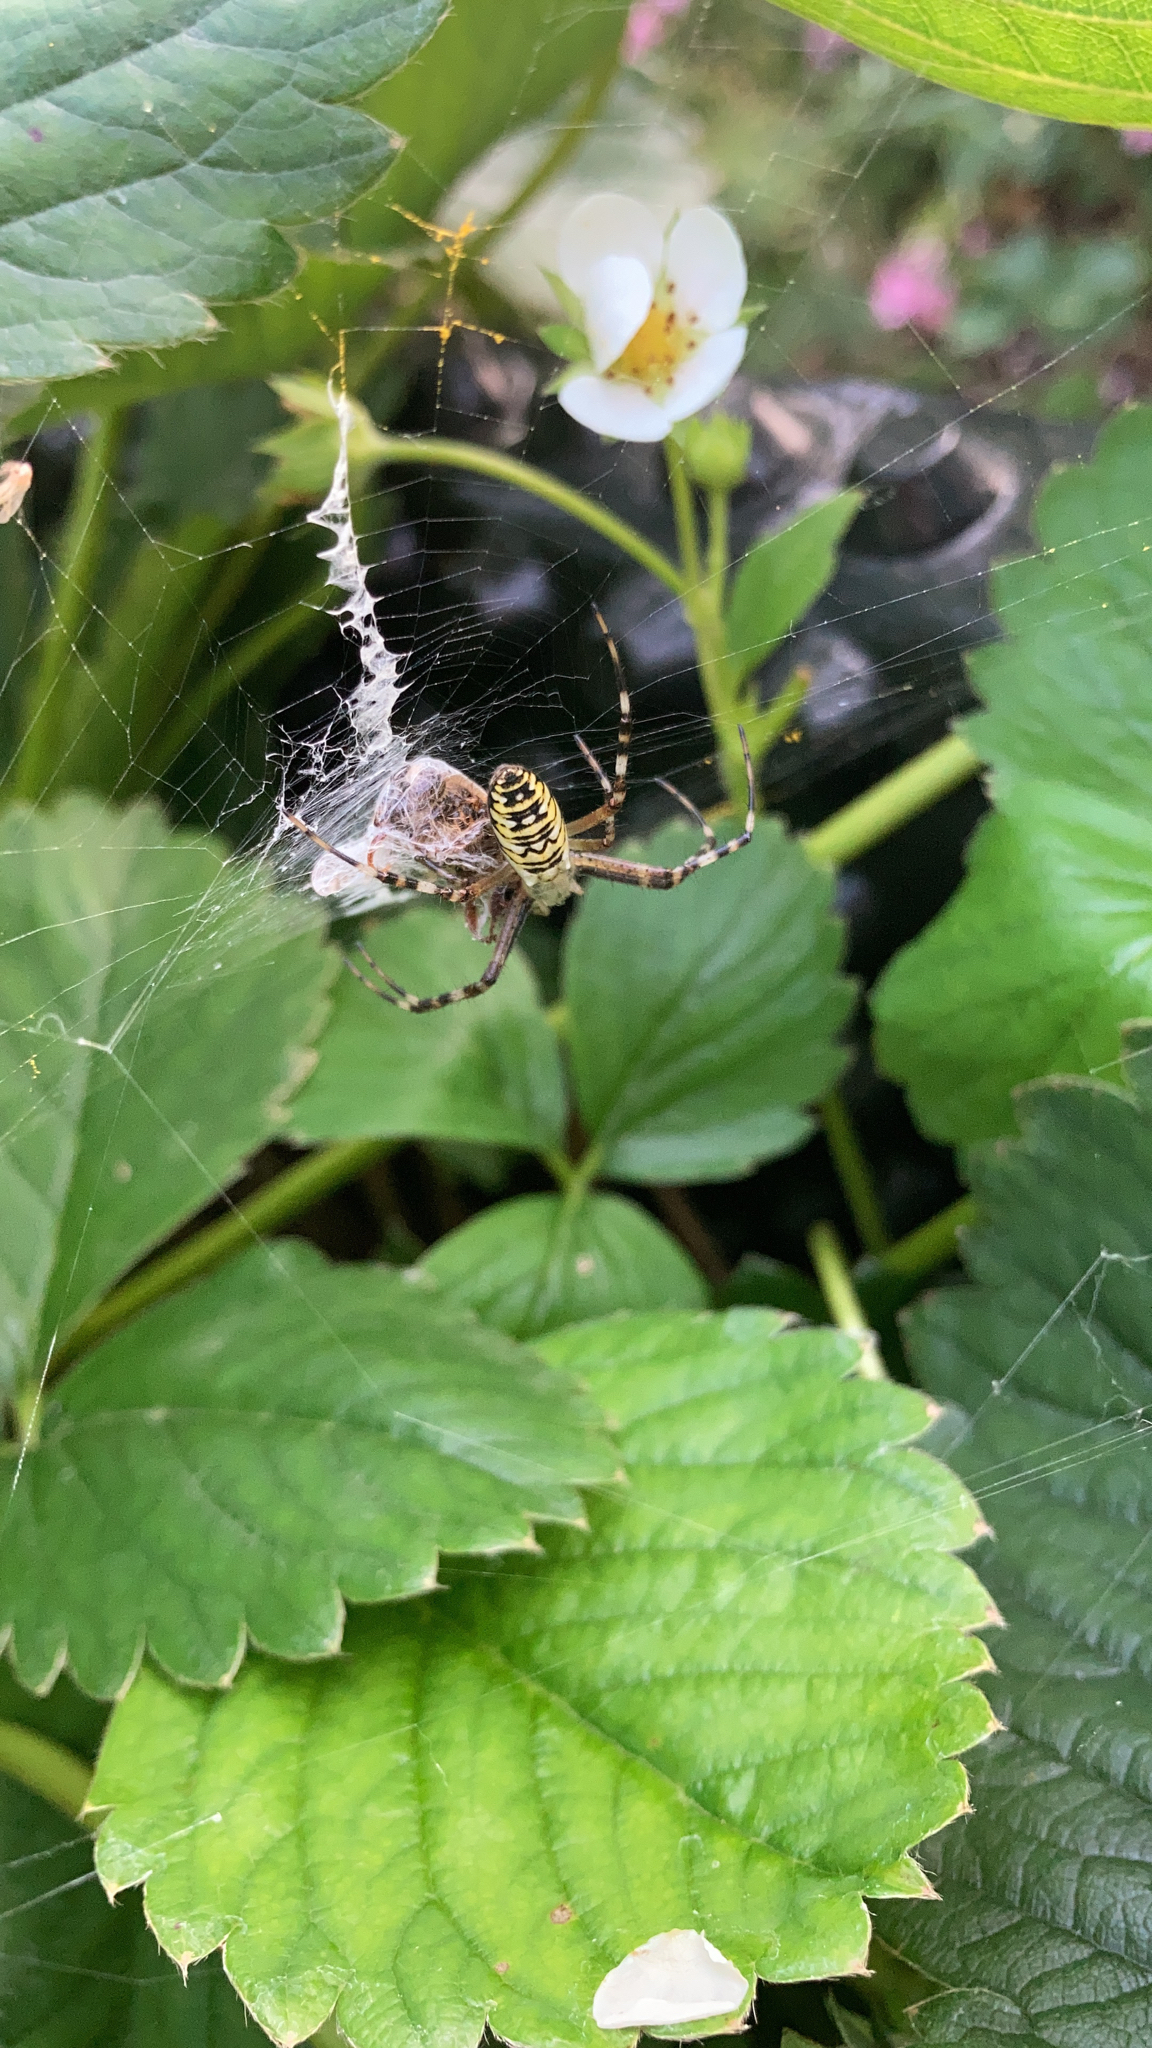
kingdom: Animalia
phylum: Arthropoda
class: Arachnida
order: Araneae
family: Araneidae
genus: Argiope
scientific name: Argiope bruennichi
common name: Wasp spider
